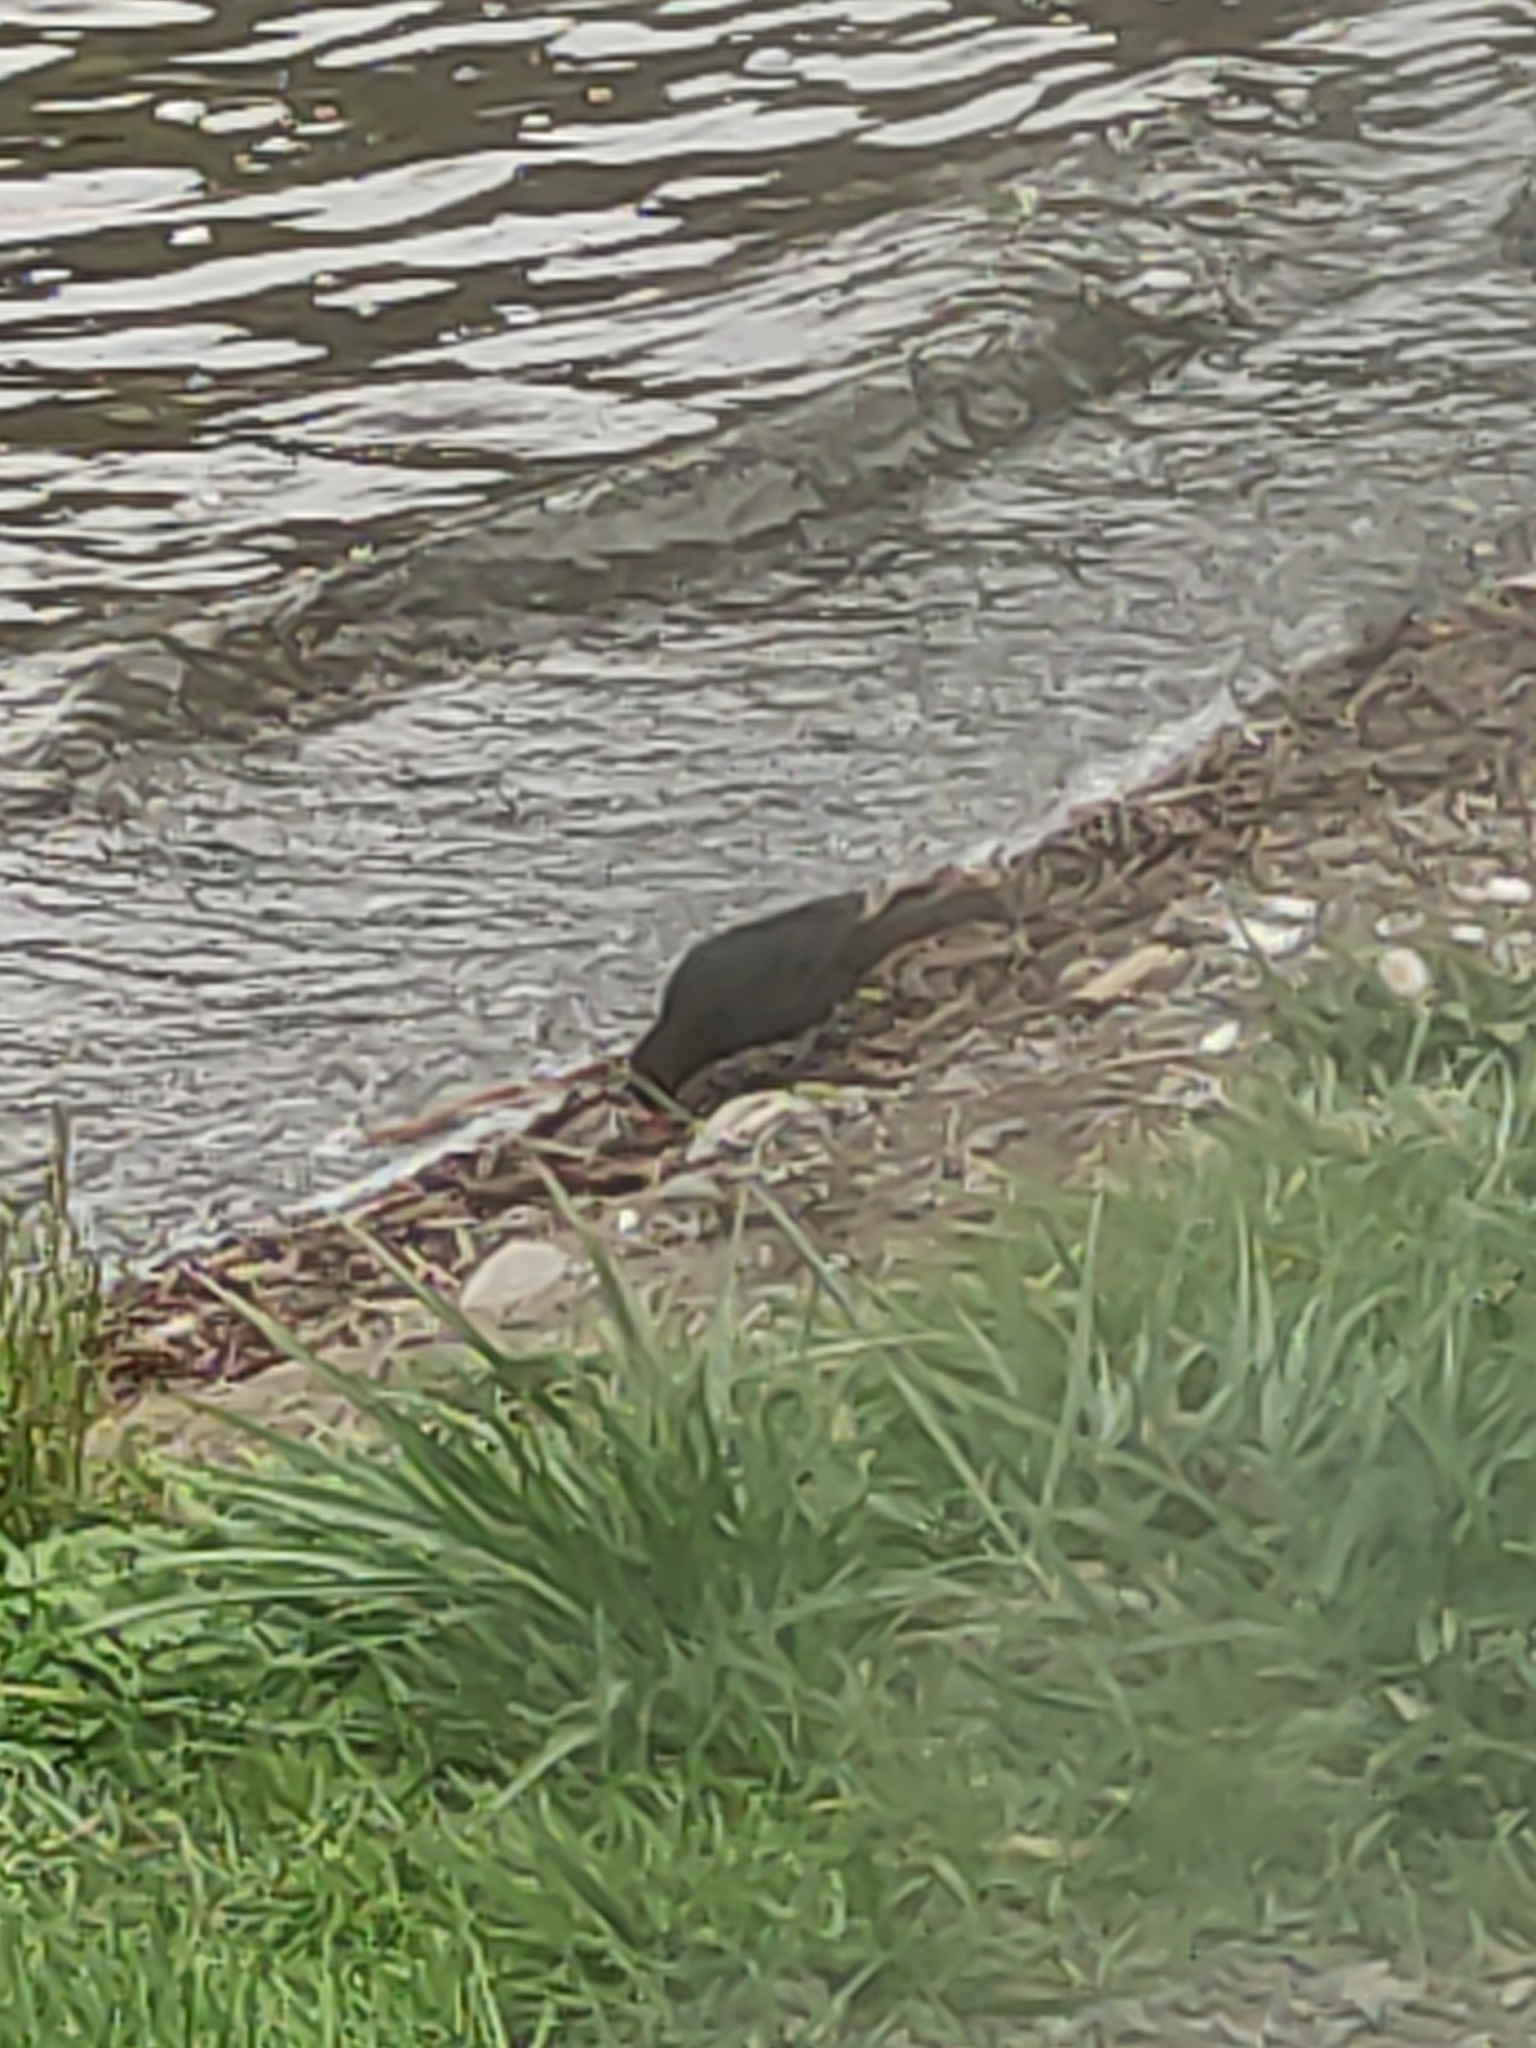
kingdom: Animalia
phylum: Chordata
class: Aves
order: Passeriformes
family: Turdidae
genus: Turdus
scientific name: Turdus merula
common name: Common blackbird
